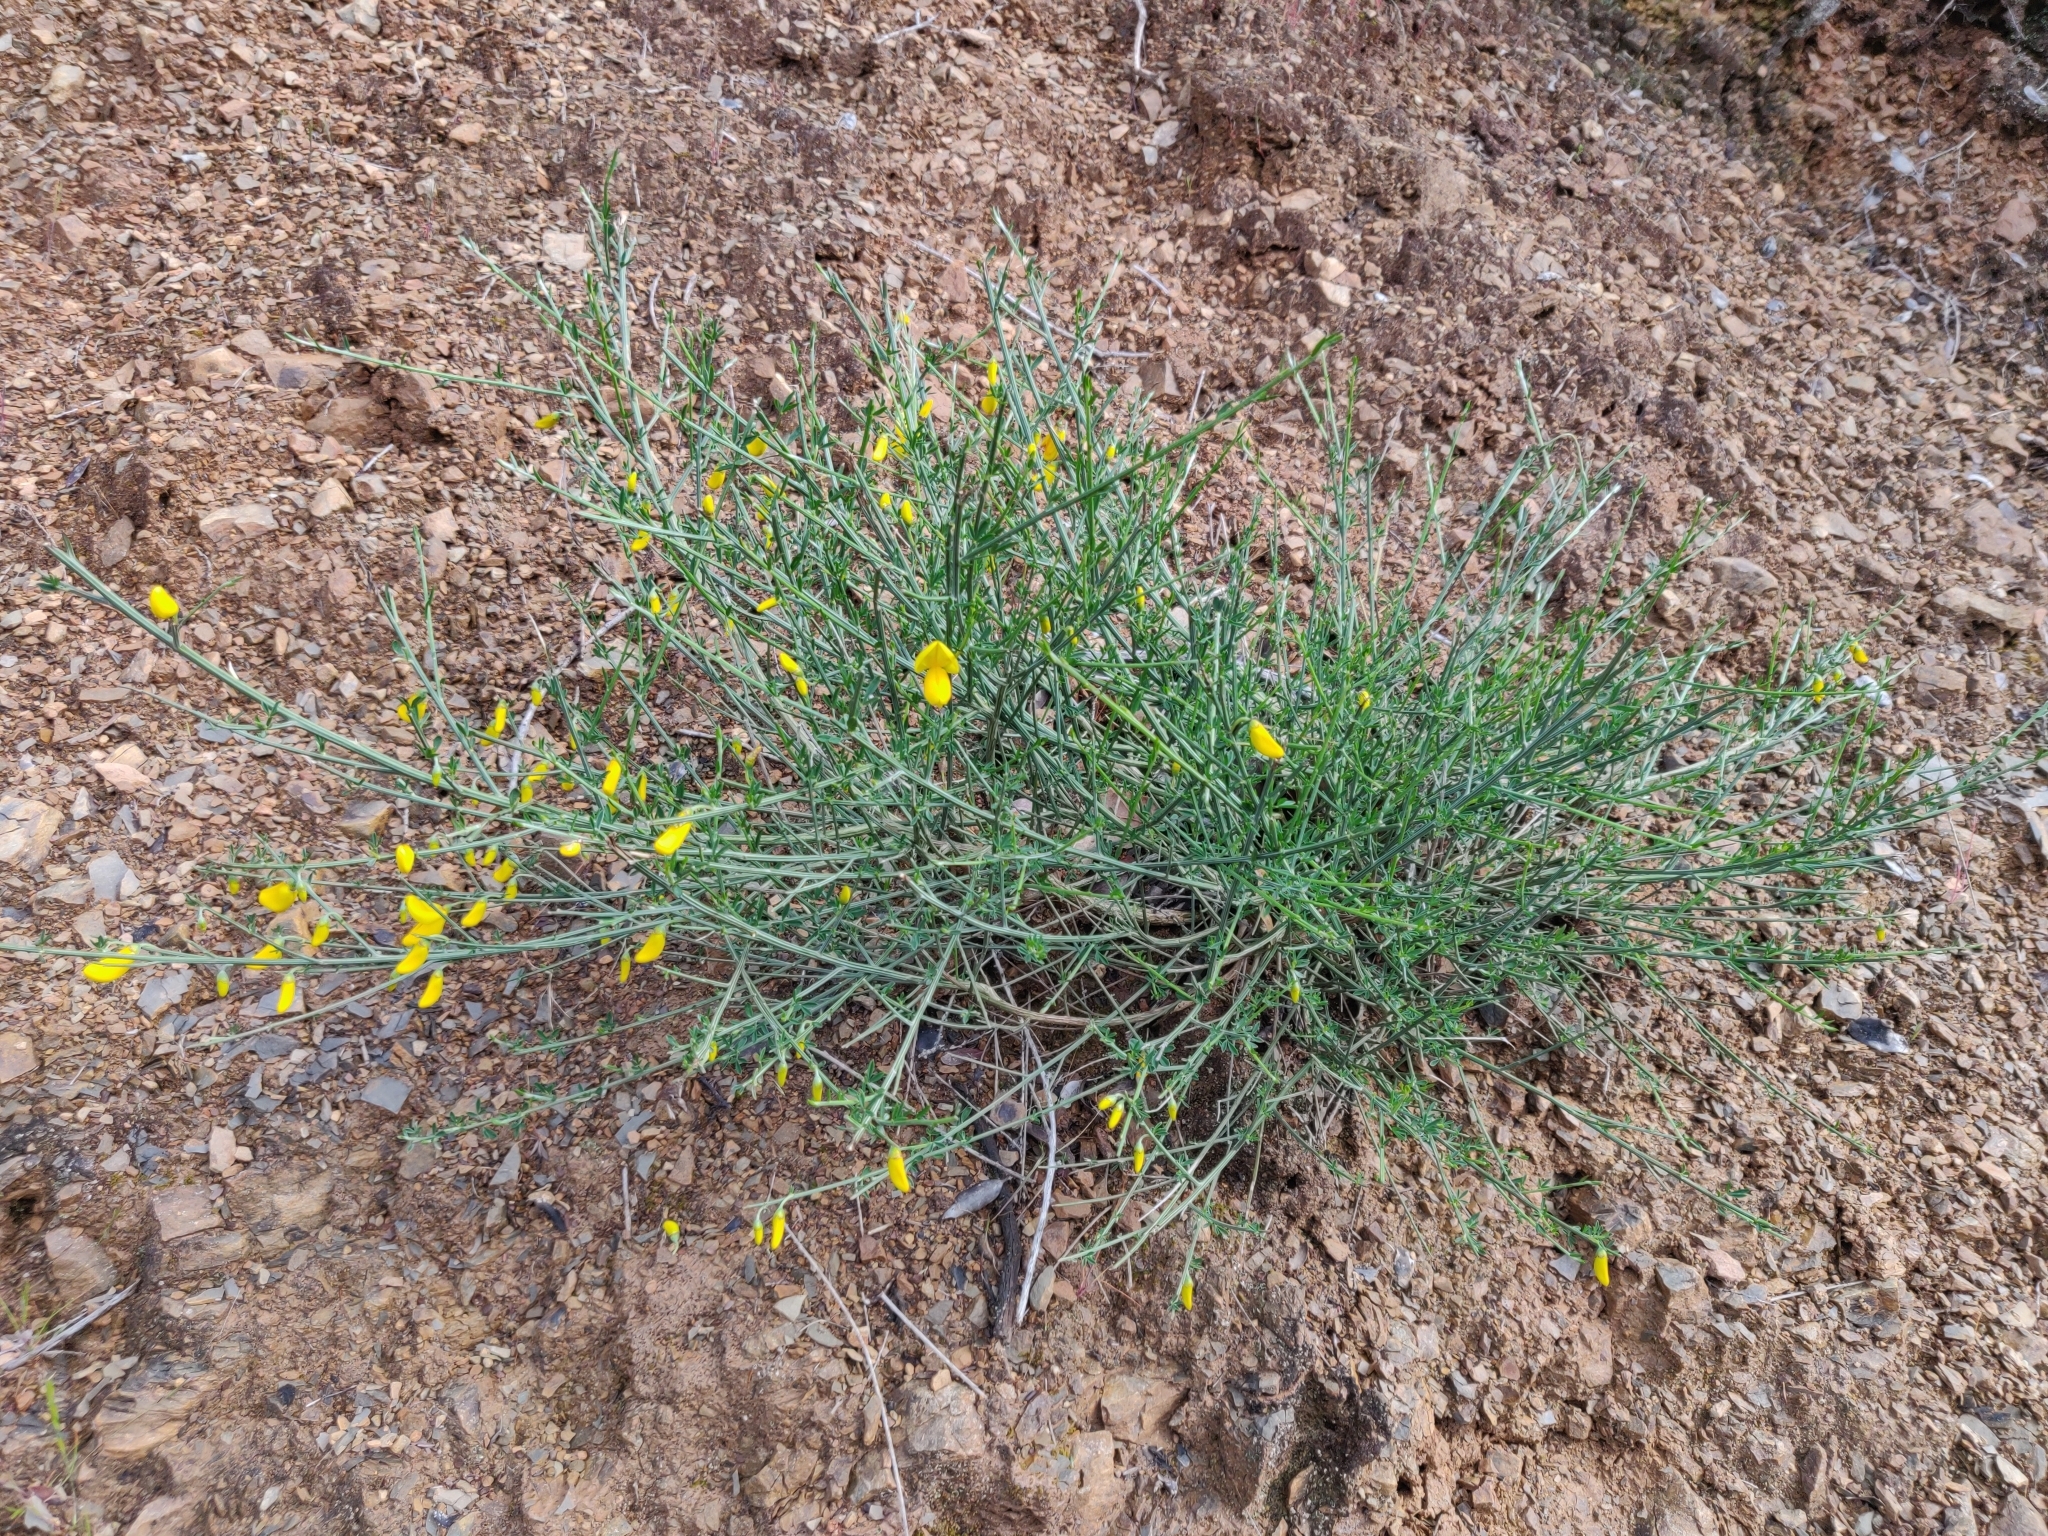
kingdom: Plantae
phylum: Tracheophyta
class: Magnoliopsida
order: Fabales
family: Fabaceae
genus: Cytisus
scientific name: Cytisus scoparius
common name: Scotch broom
